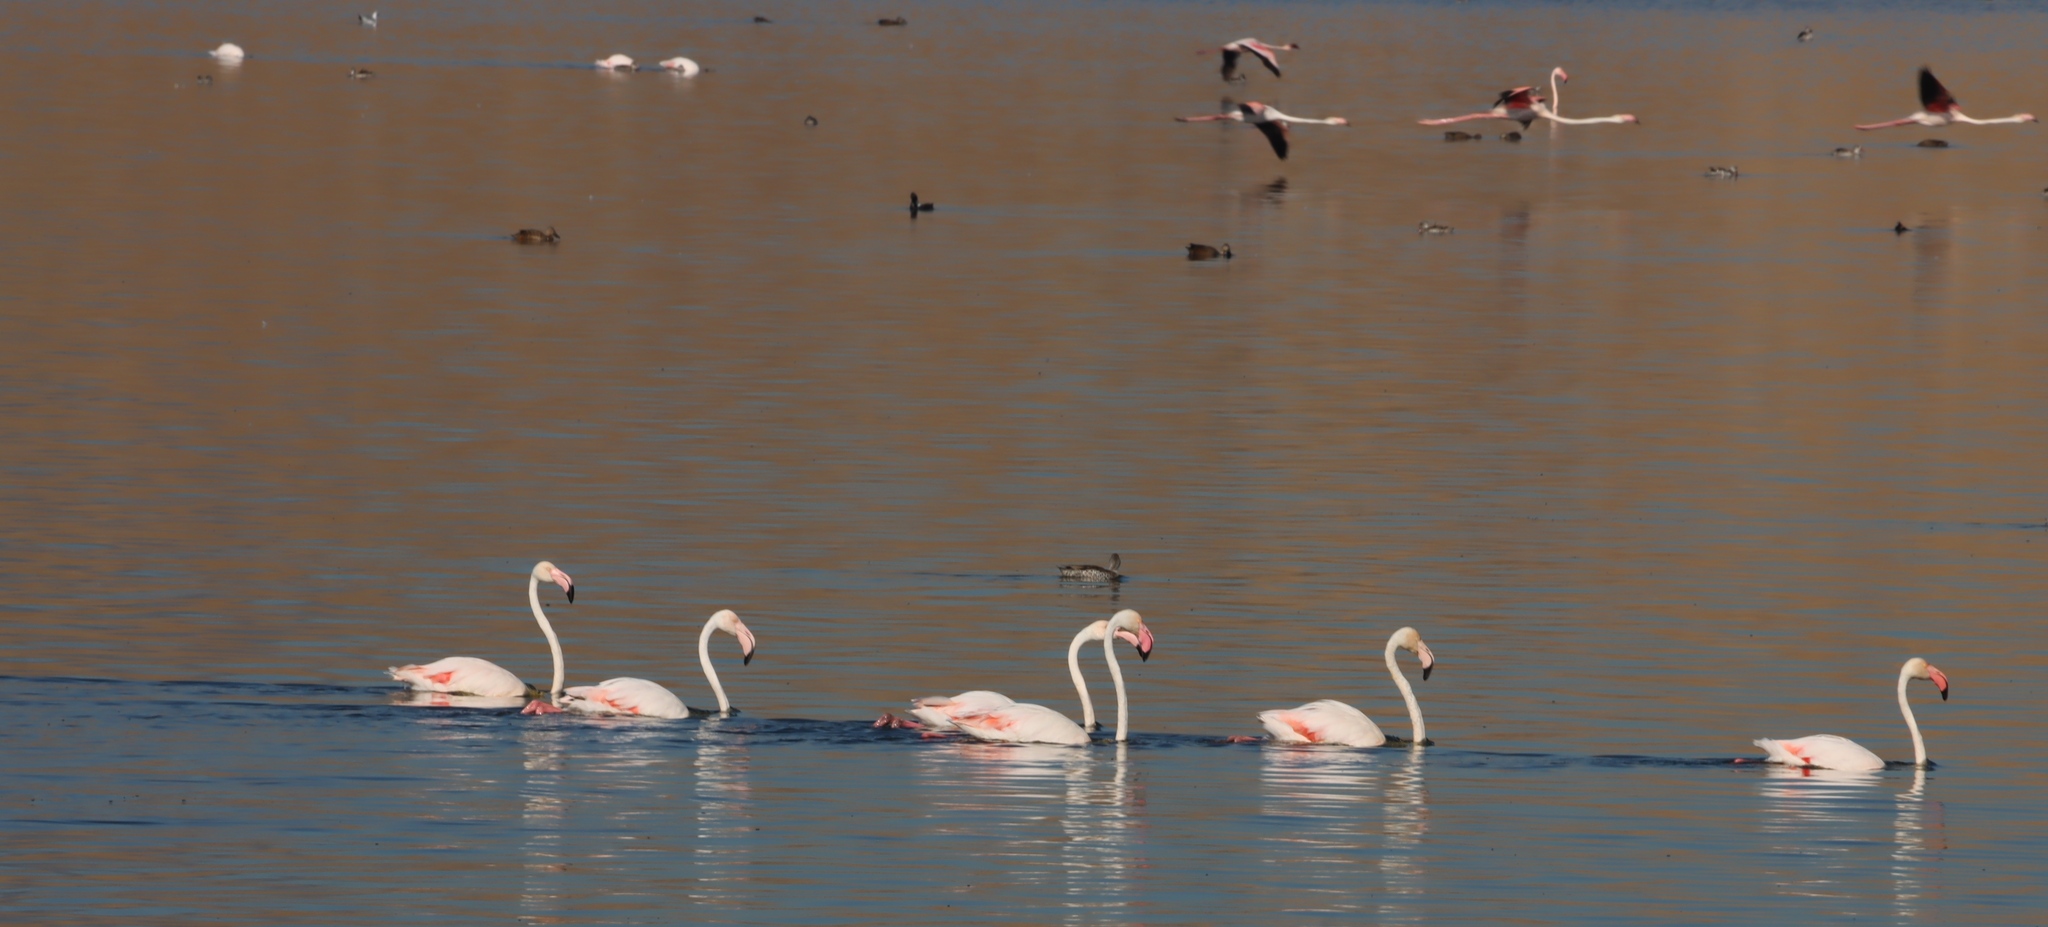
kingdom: Animalia
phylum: Chordata
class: Aves
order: Phoenicopteriformes
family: Phoenicopteridae
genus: Phoenicopterus
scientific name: Phoenicopterus roseus
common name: Greater flamingo
